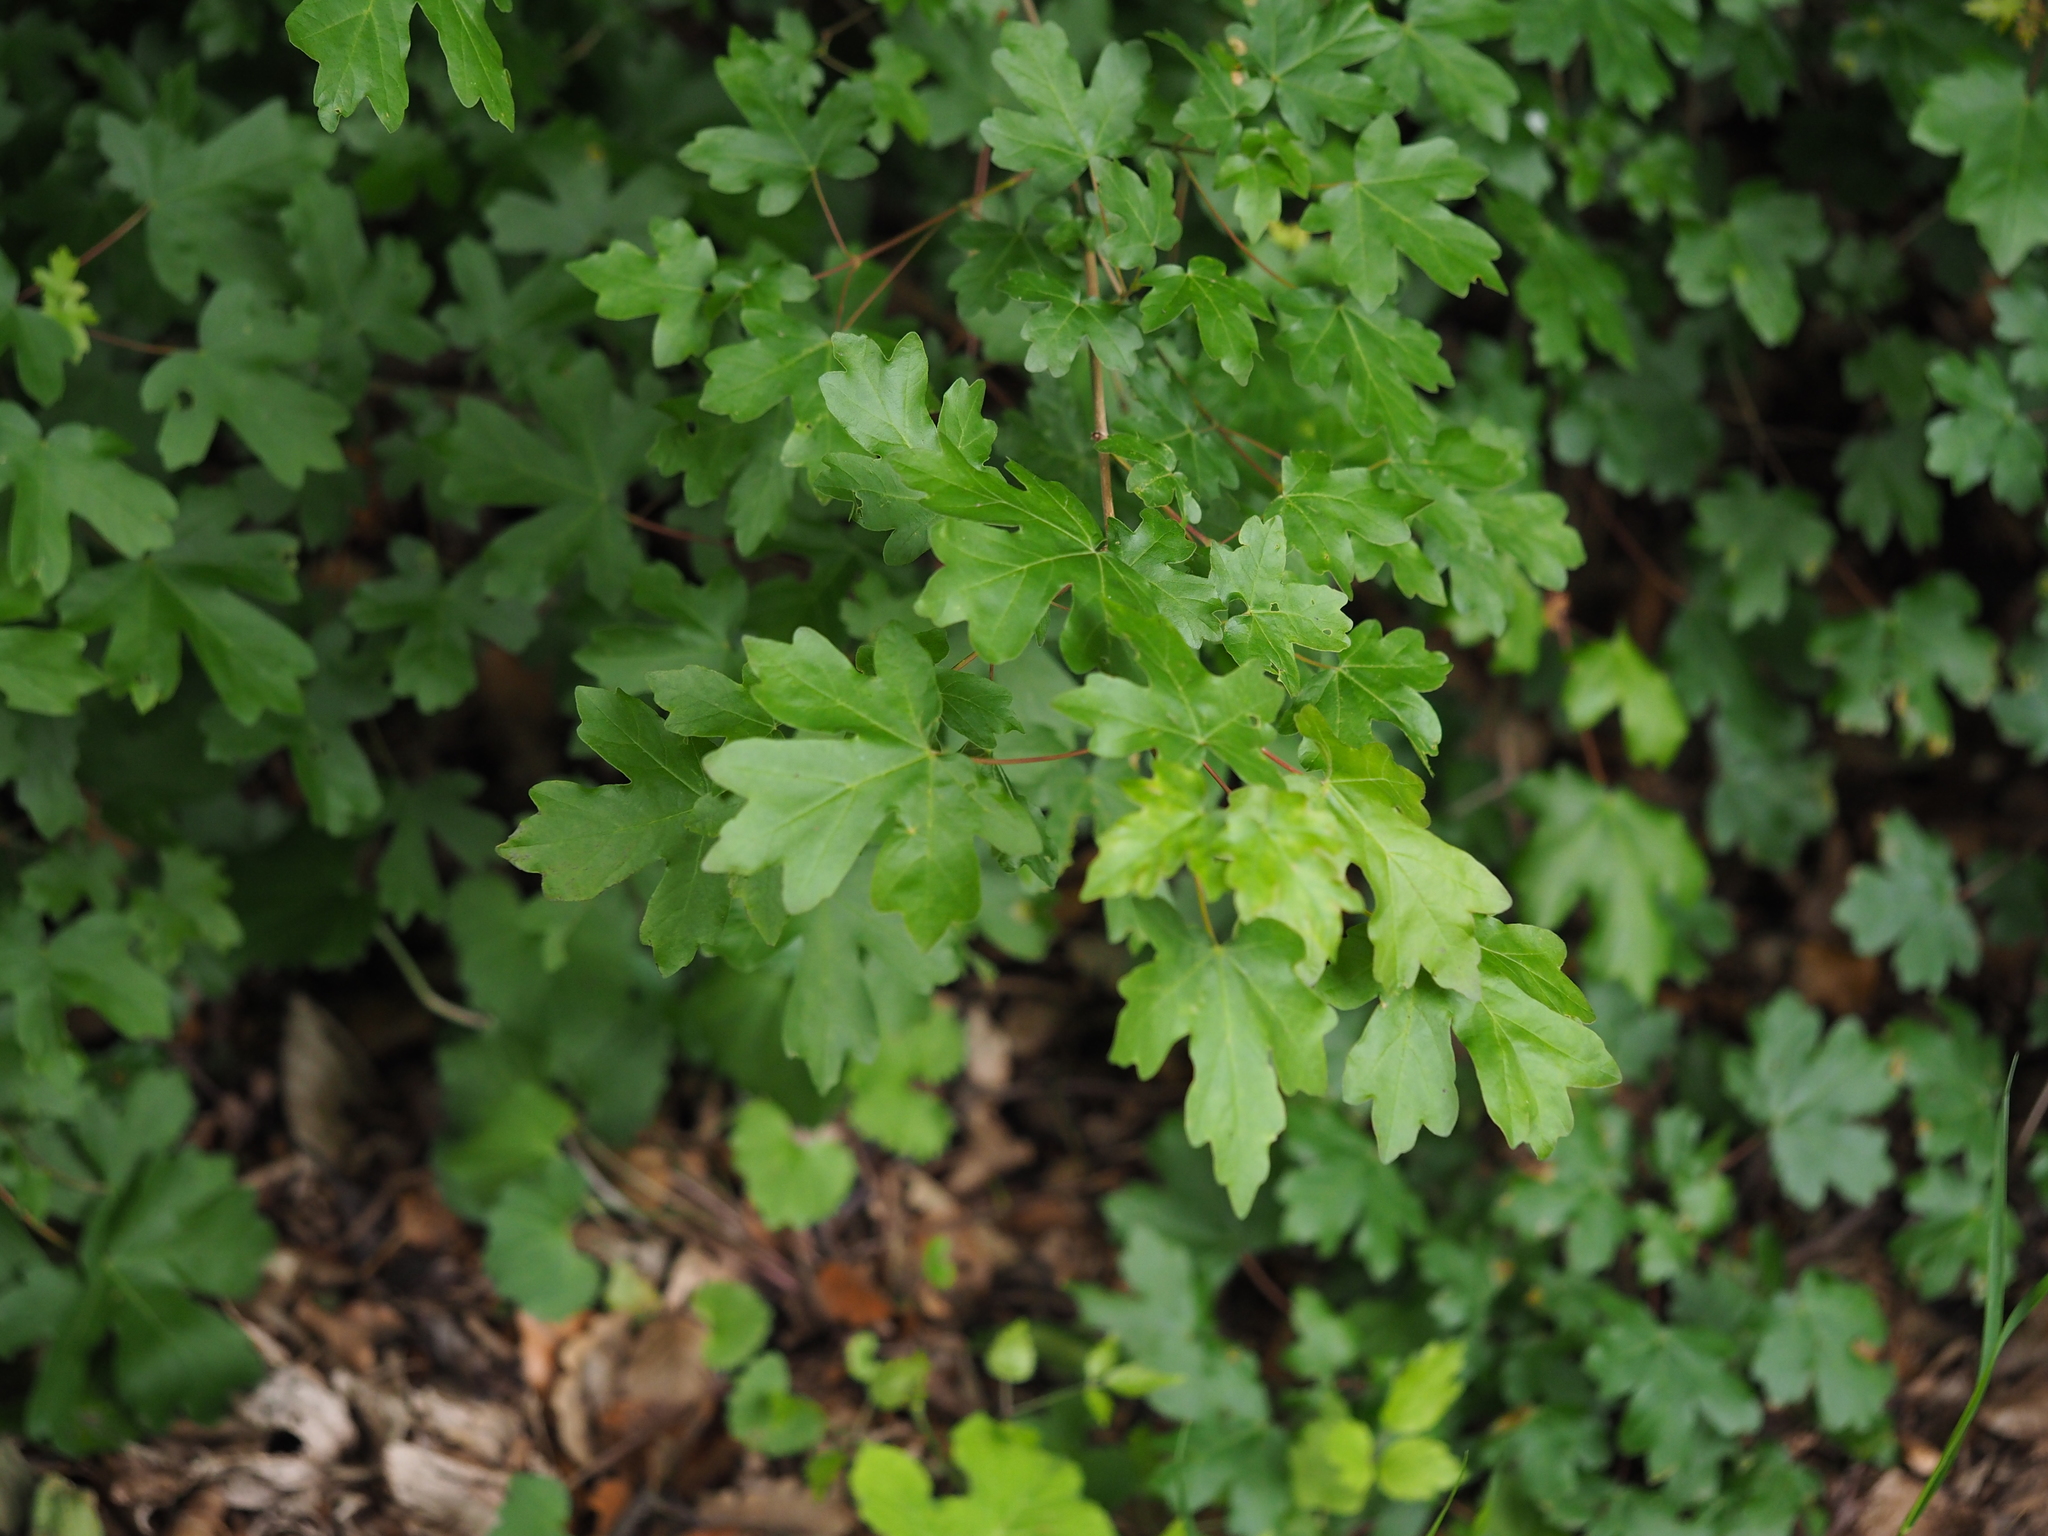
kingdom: Plantae
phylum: Tracheophyta
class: Magnoliopsida
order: Sapindales
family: Sapindaceae
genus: Acer
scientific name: Acer campestre
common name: Field maple
